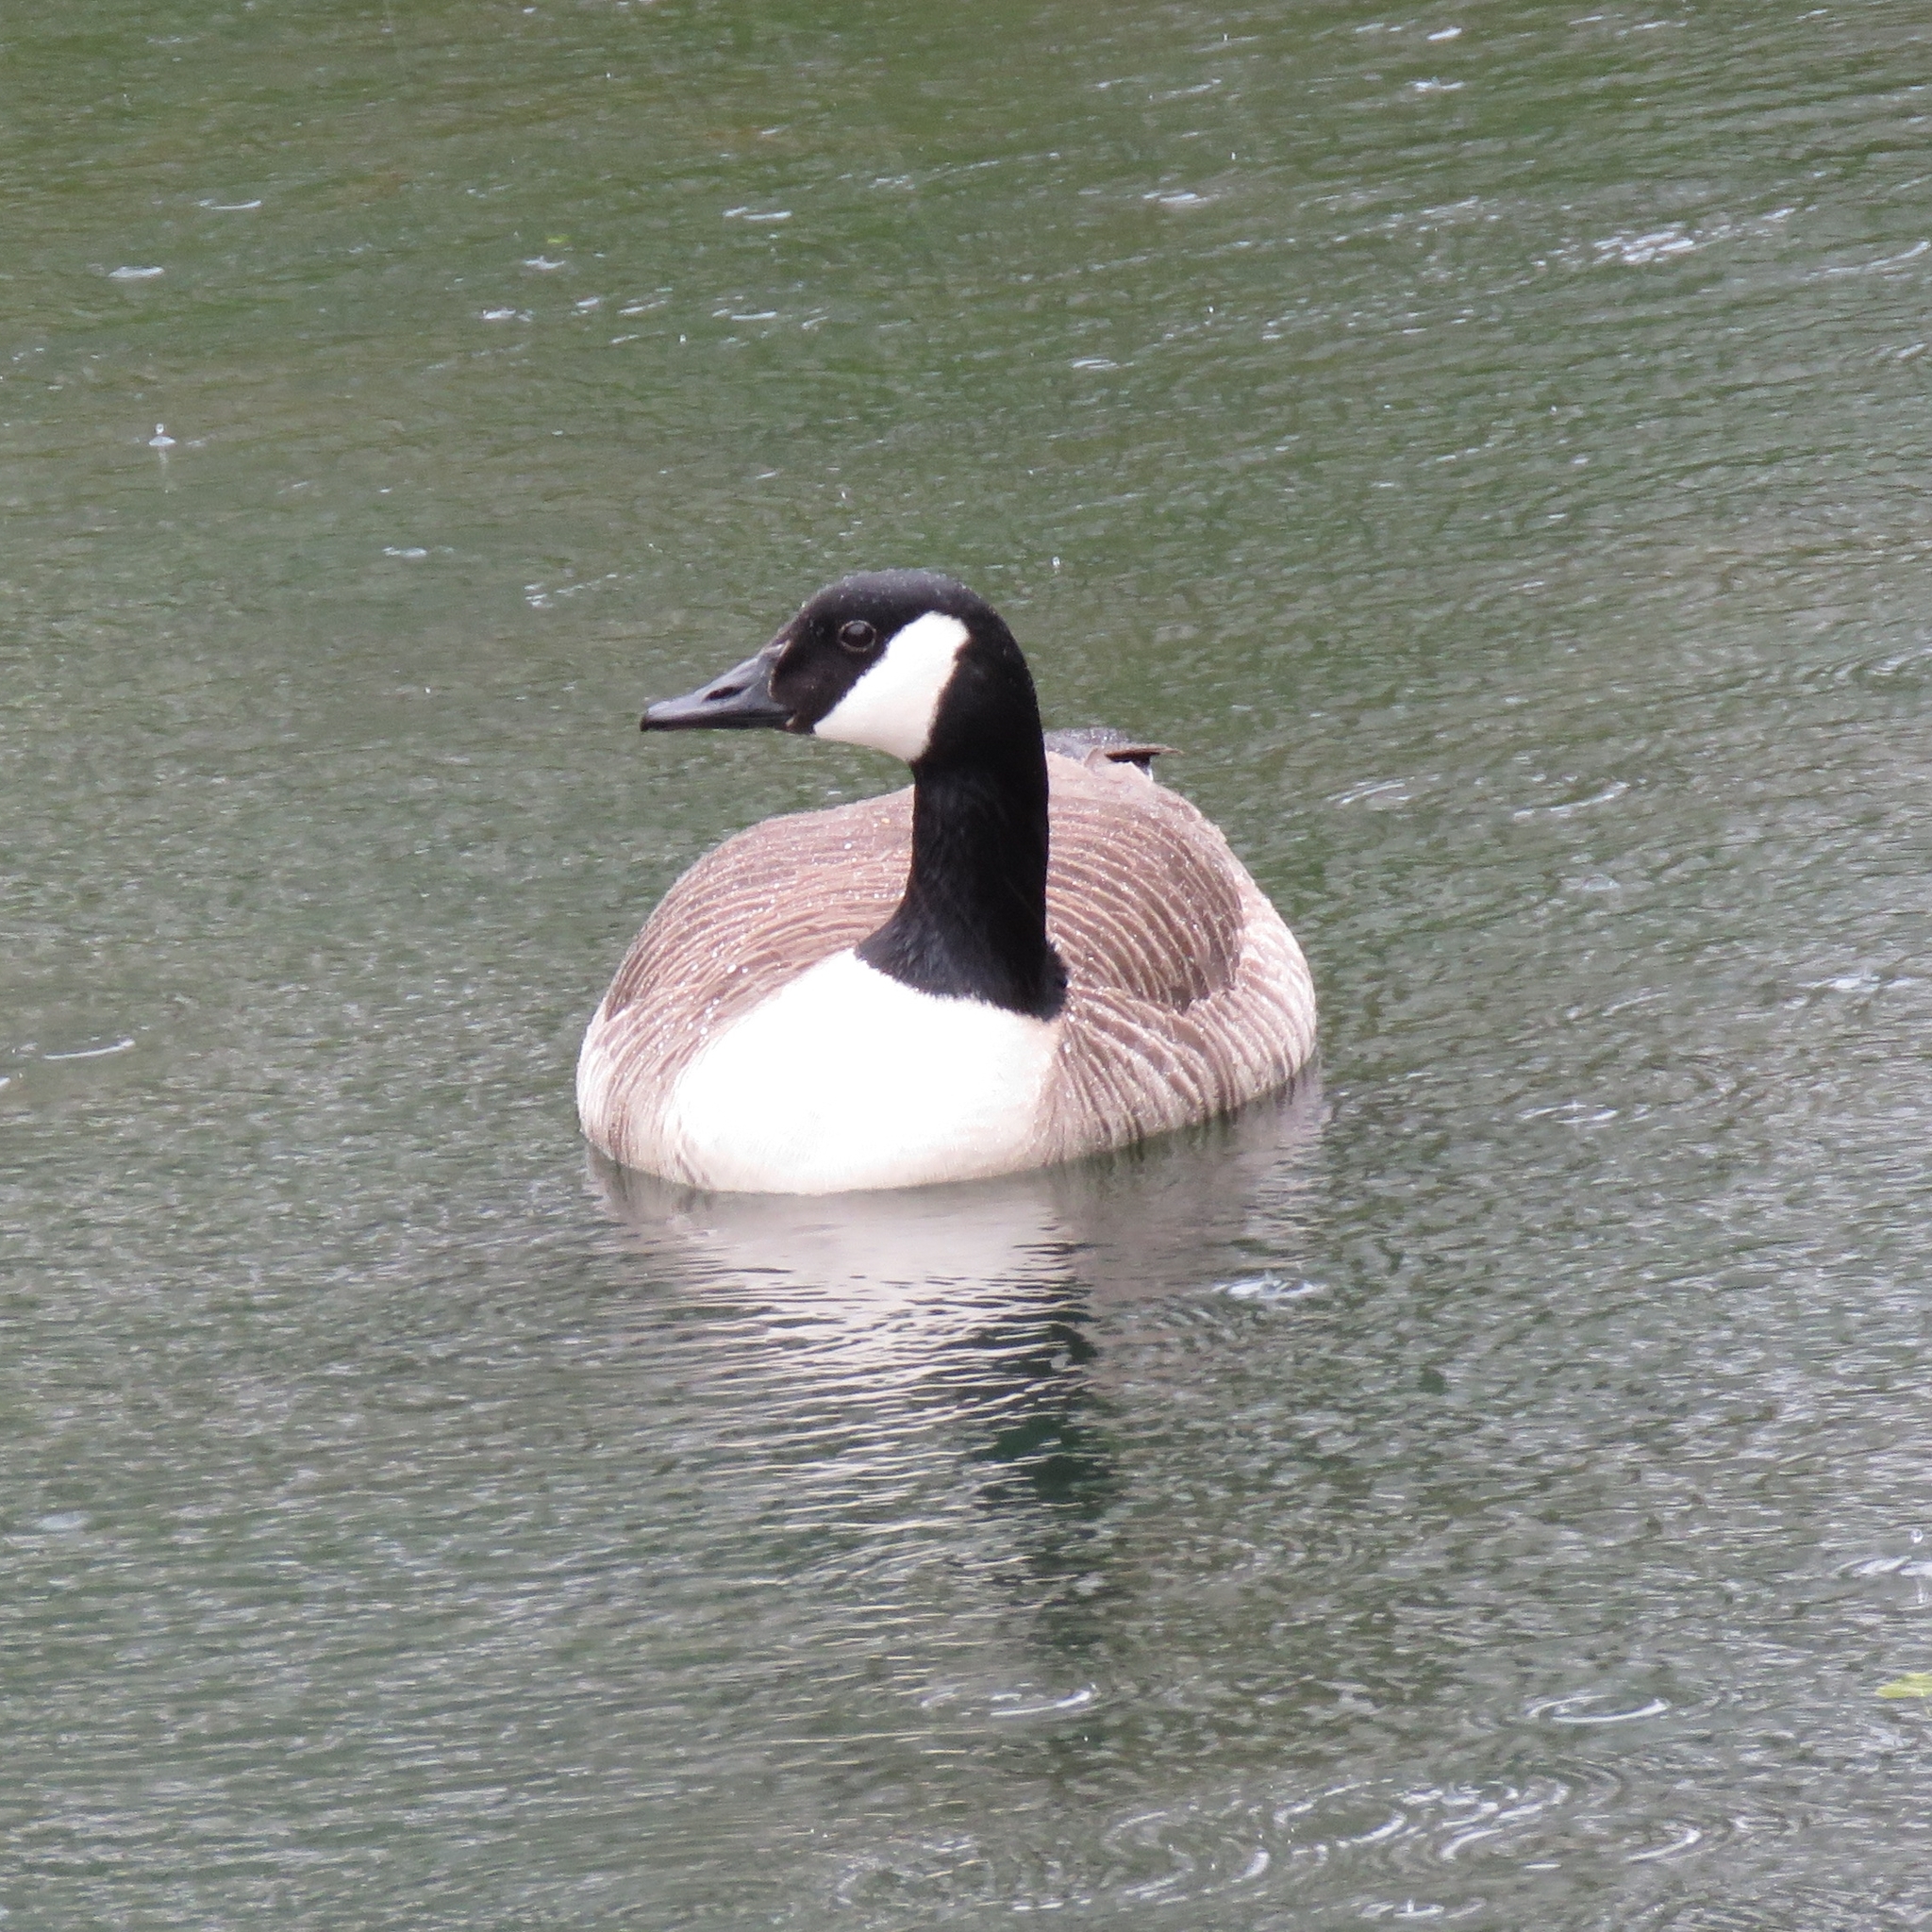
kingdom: Animalia
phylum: Chordata
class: Aves
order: Anseriformes
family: Anatidae
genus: Branta
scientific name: Branta canadensis
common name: Canada goose
